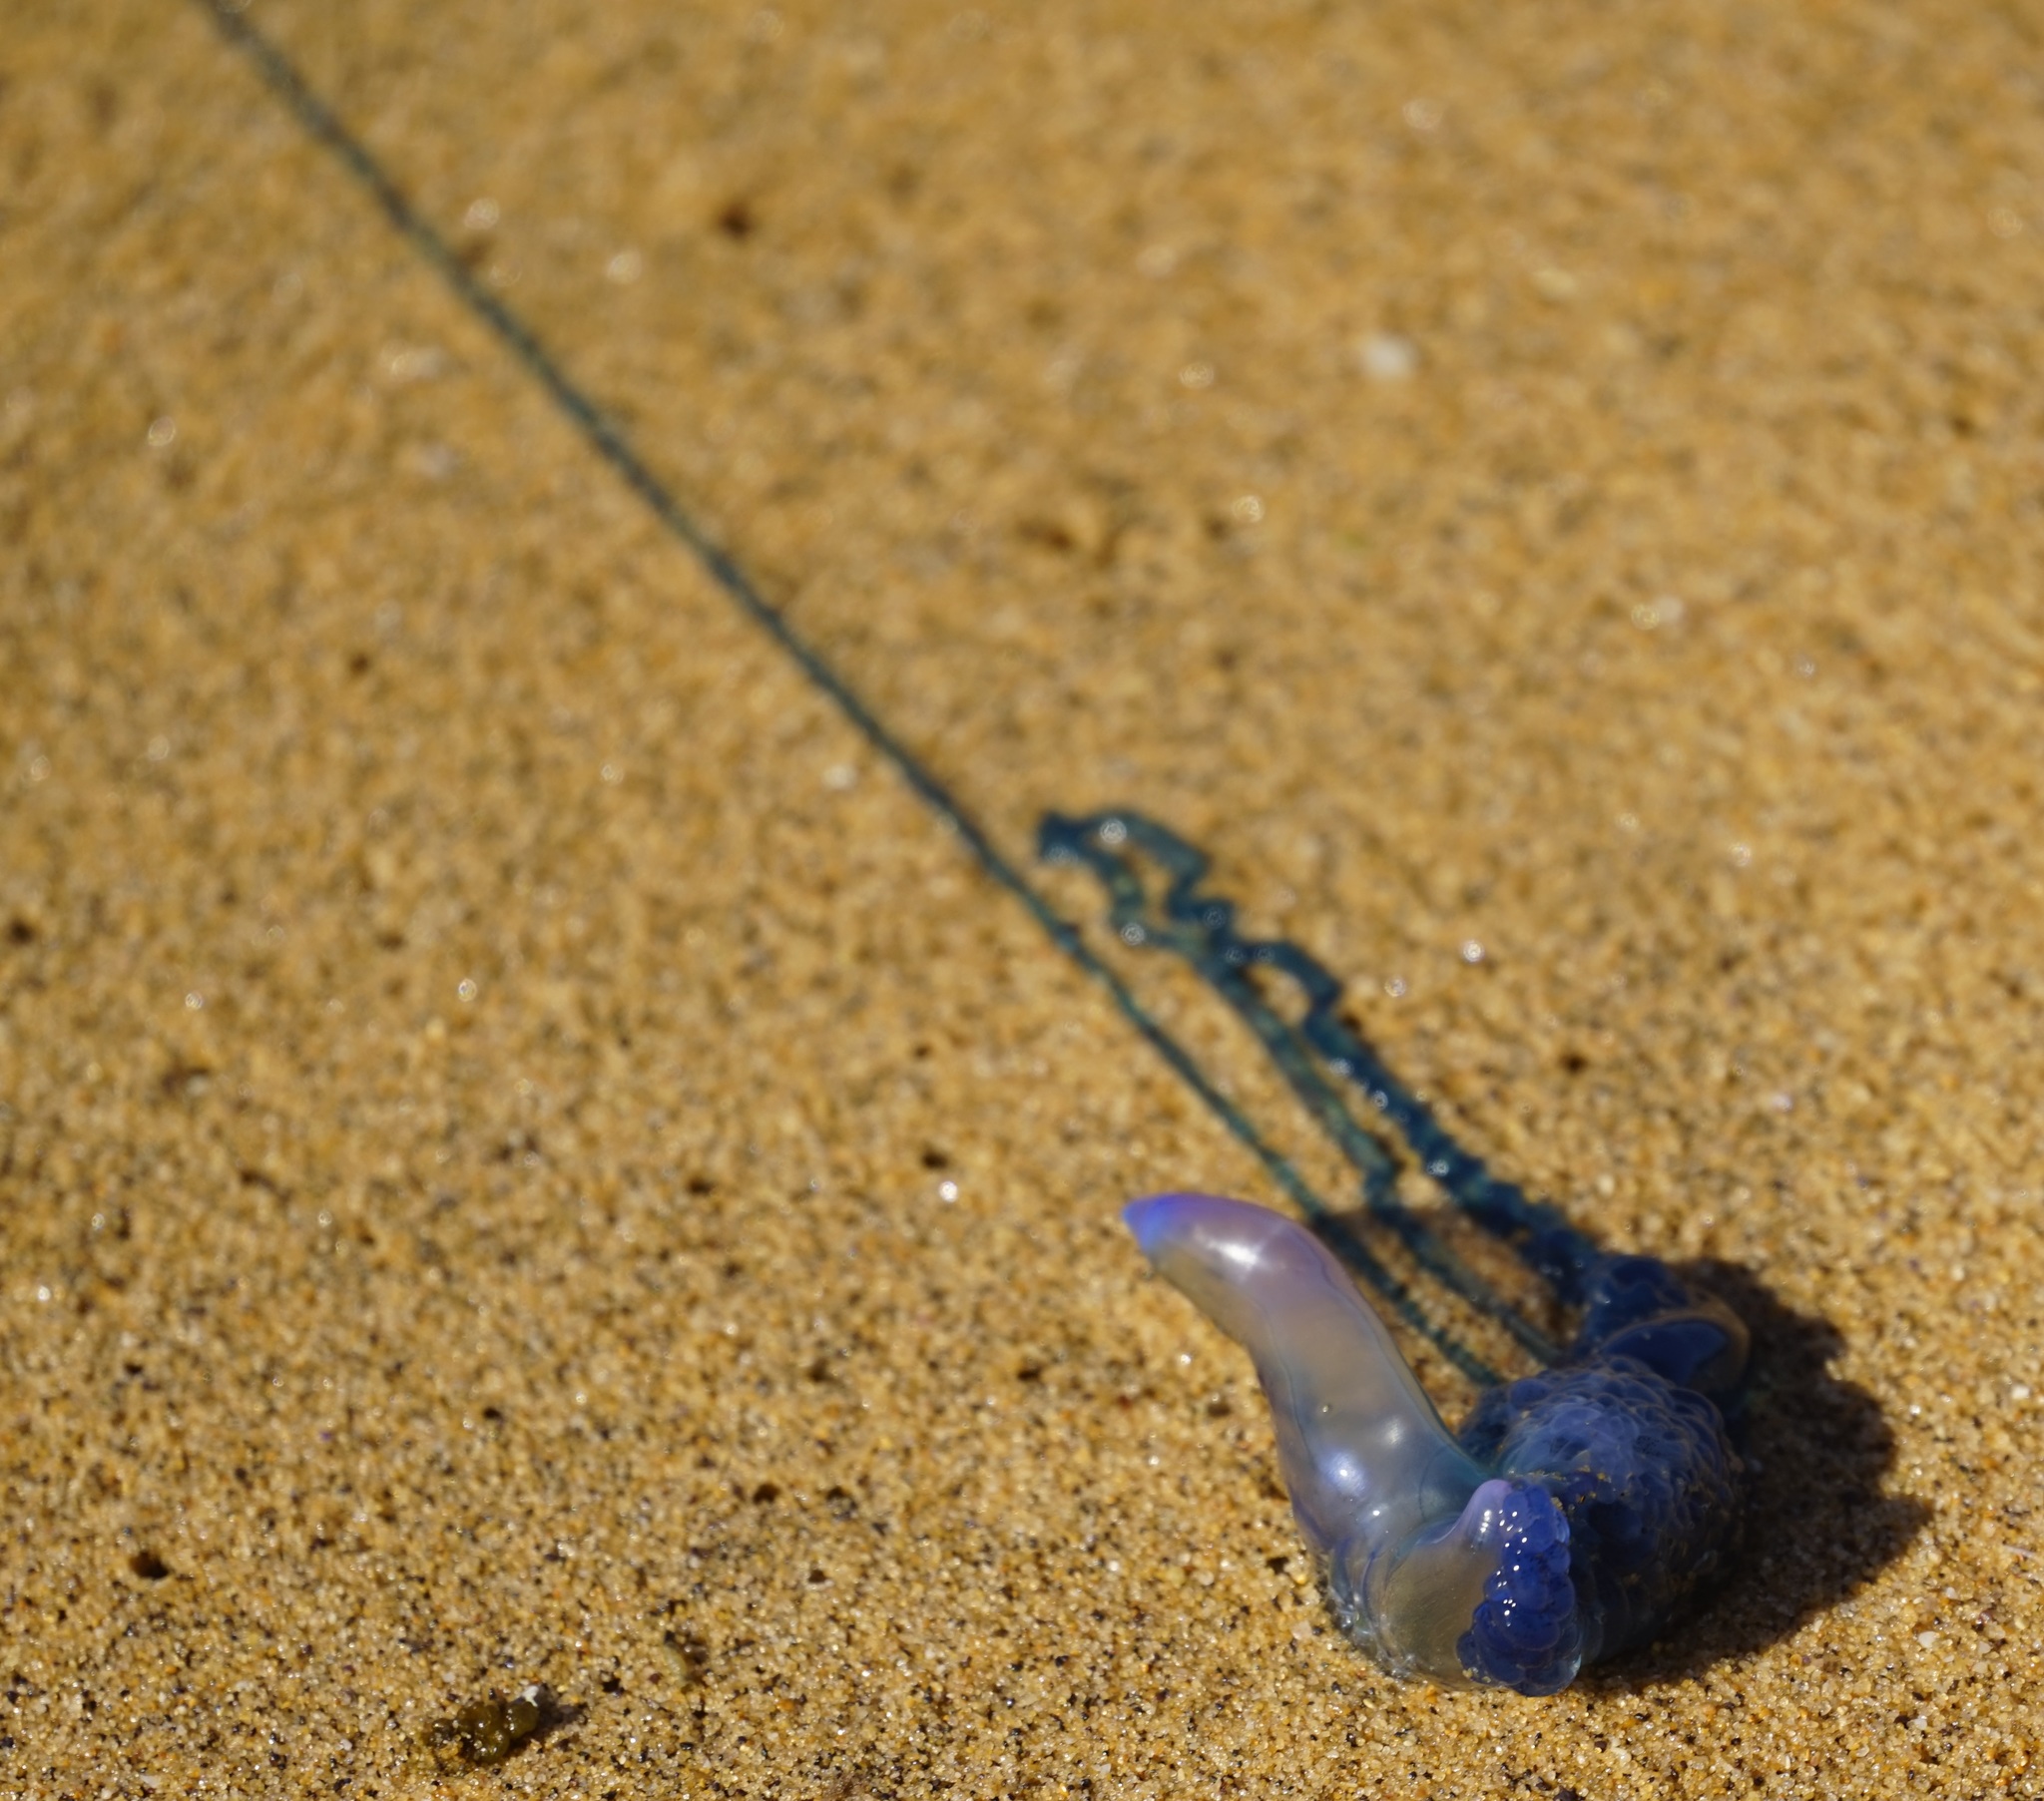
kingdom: Animalia
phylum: Cnidaria
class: Hydrozoa
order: Siphonophorae
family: Physaliidae
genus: Physalia
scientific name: Physalia physalis
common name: Portuguese man-of-war
